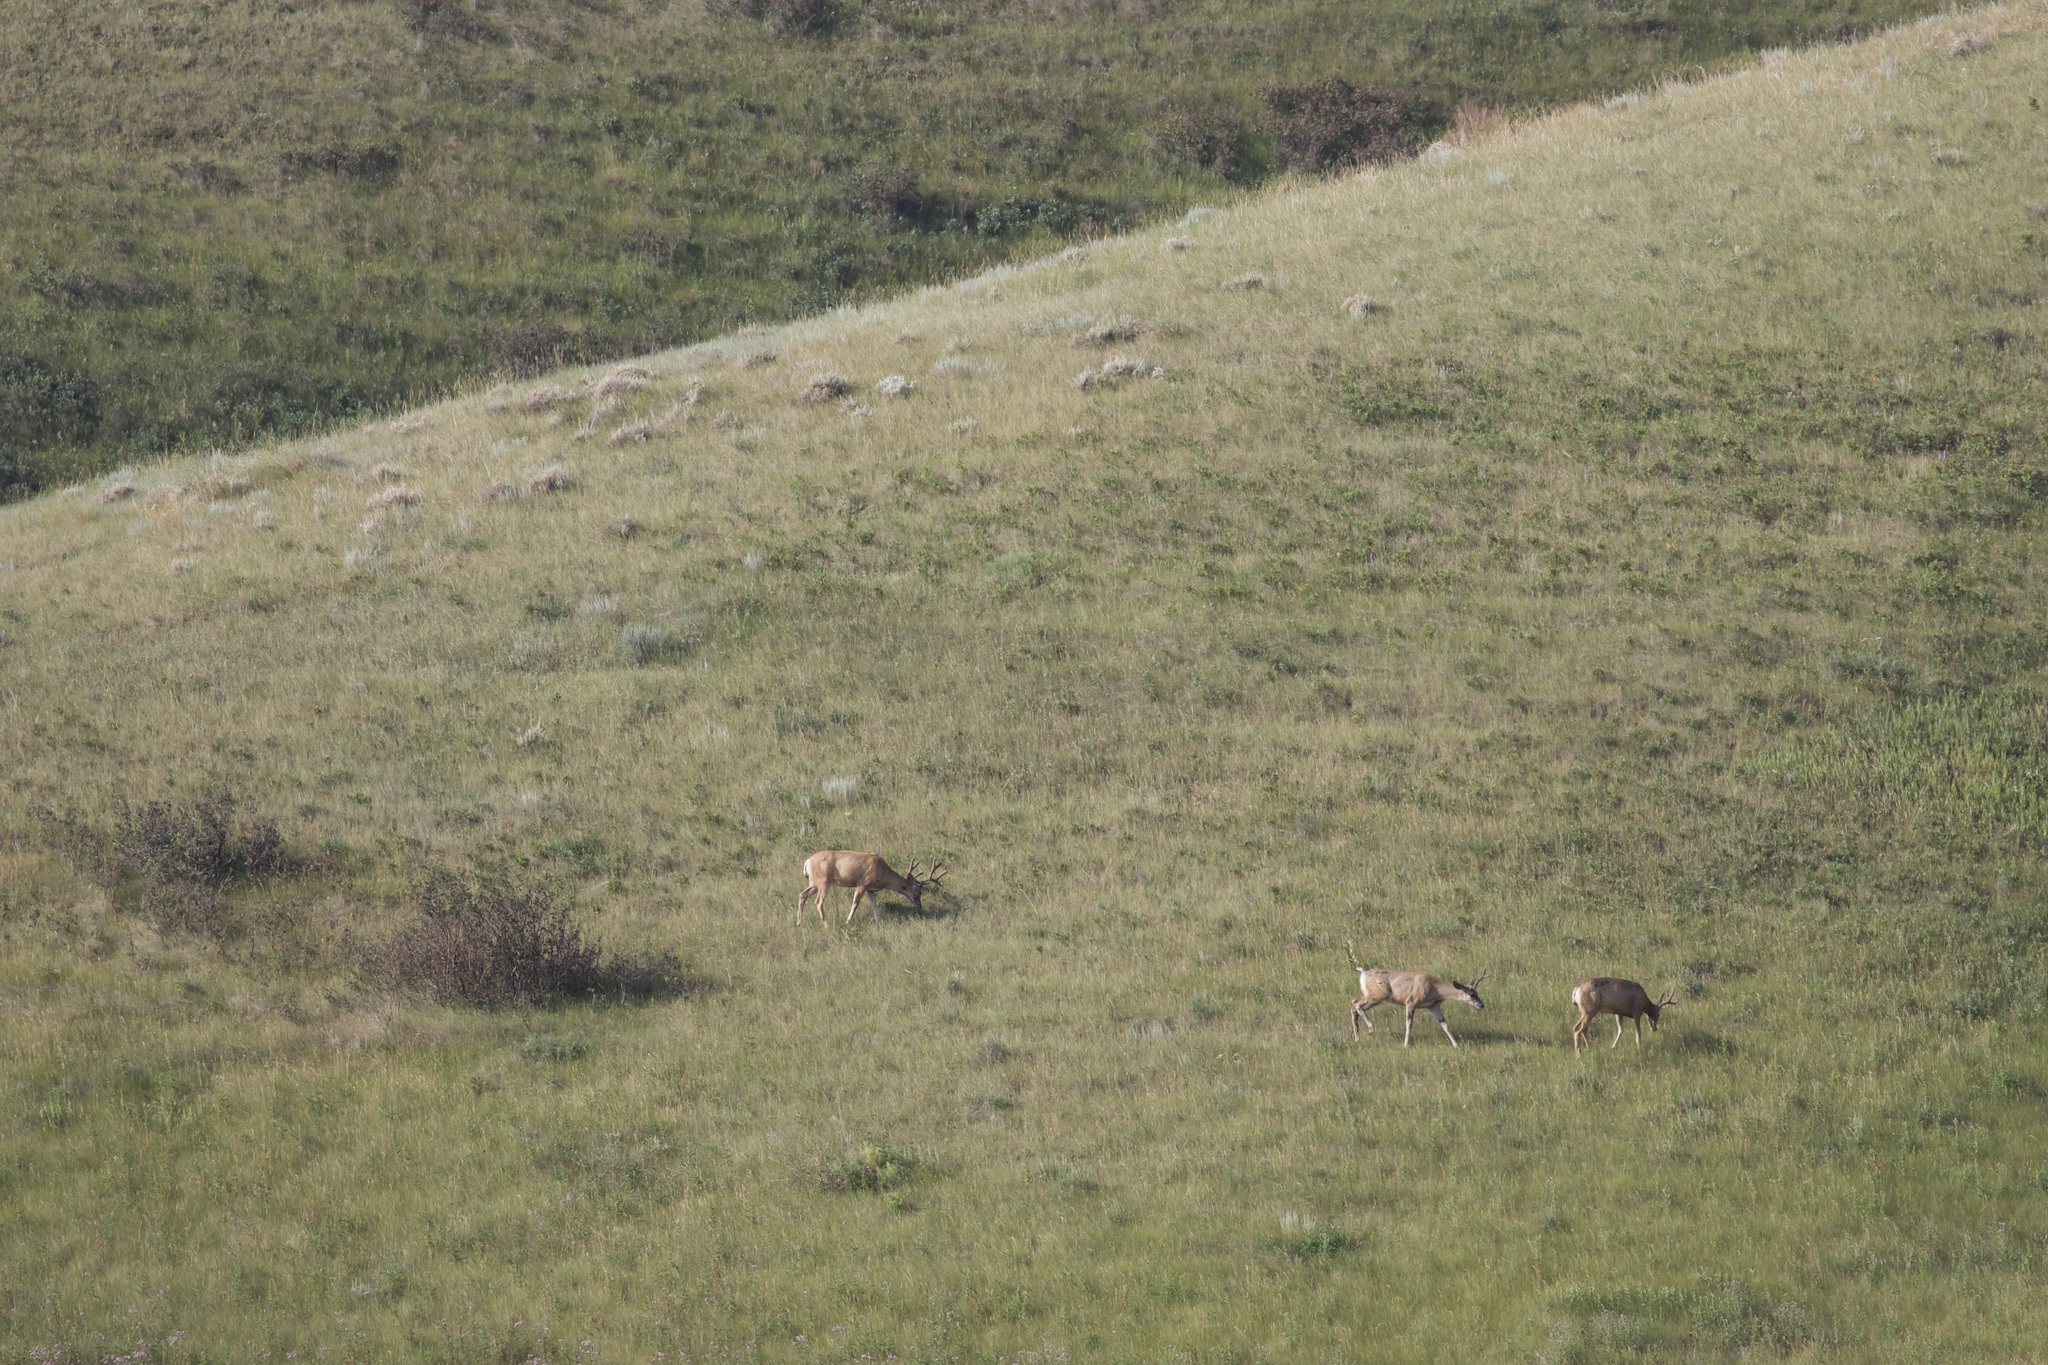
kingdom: Animalia
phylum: Chordata
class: Mammalia
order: Artiodactyla
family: Cervidae
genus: Odocoileus
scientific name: Odocoileus hemionus
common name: Mule deer
